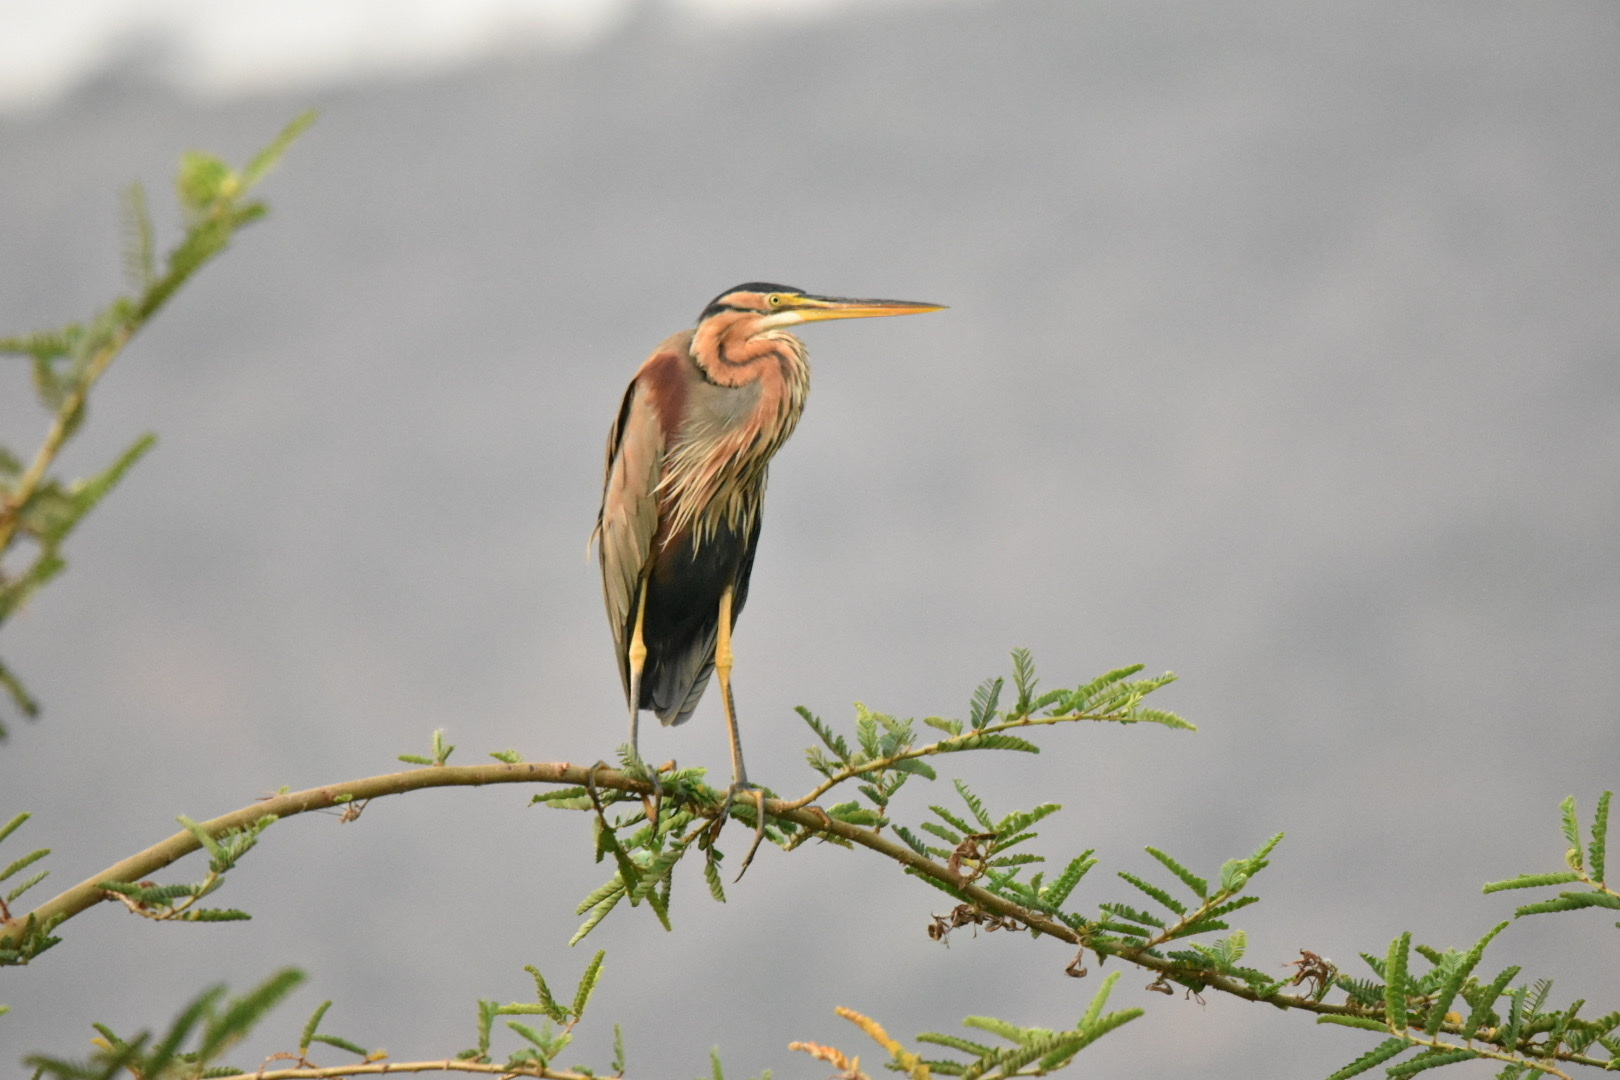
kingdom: Animalia
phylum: Chordata
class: Aves
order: Pelecaniformes
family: Ardeidae
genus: Ardea
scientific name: Ardea purpurea
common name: Purple heron
